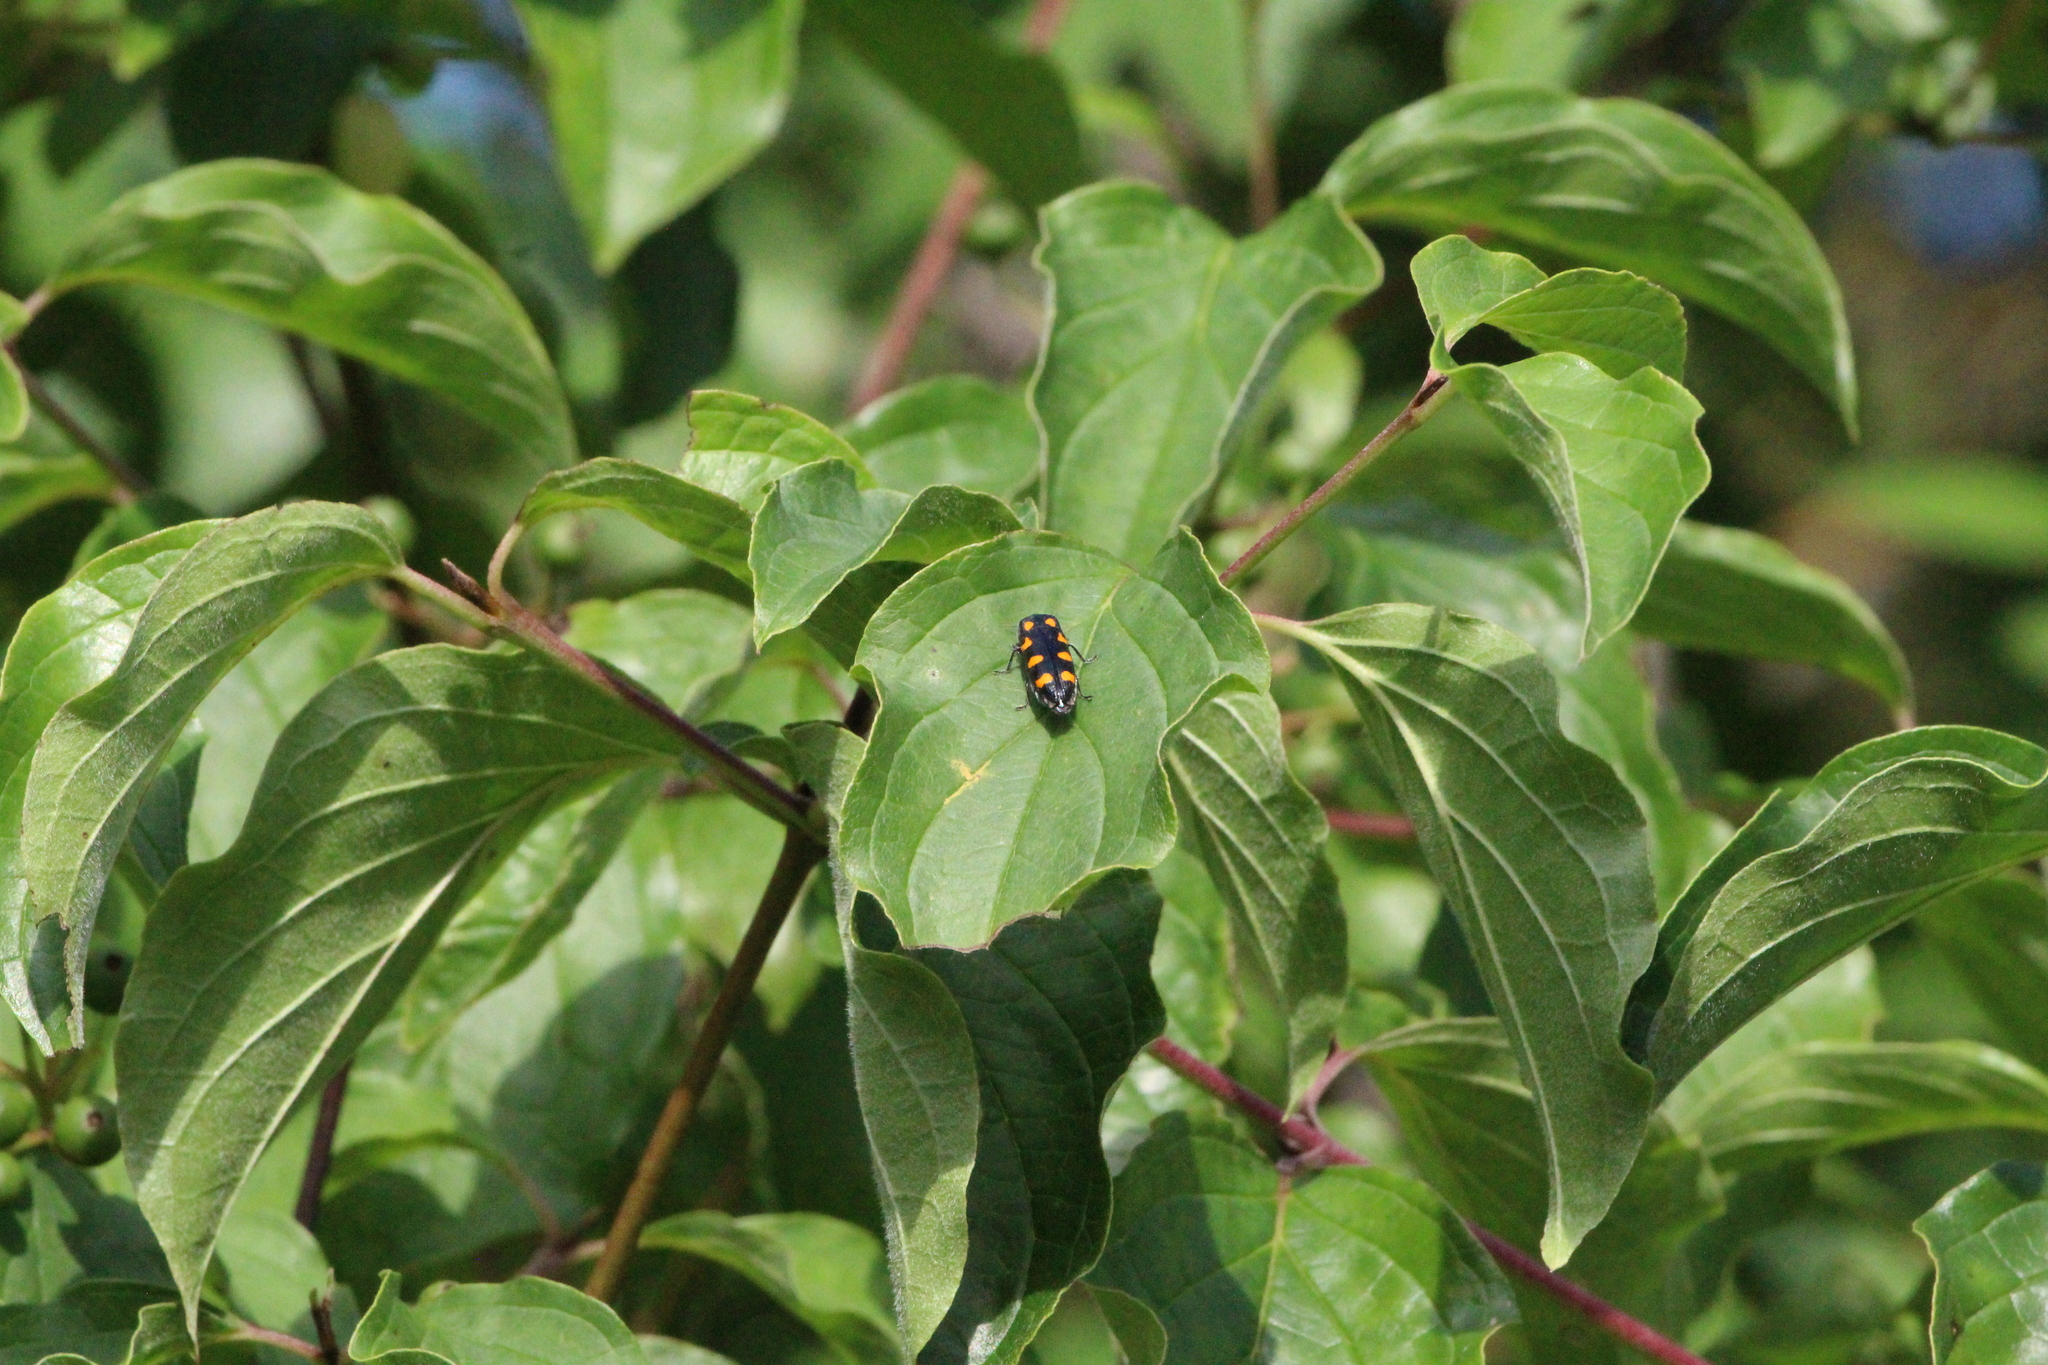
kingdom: Animalia
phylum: Arthropoda
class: Insecta
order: Coleoptera
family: Buprestidae
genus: Ptosima
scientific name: Ptosima undecimmaculata
